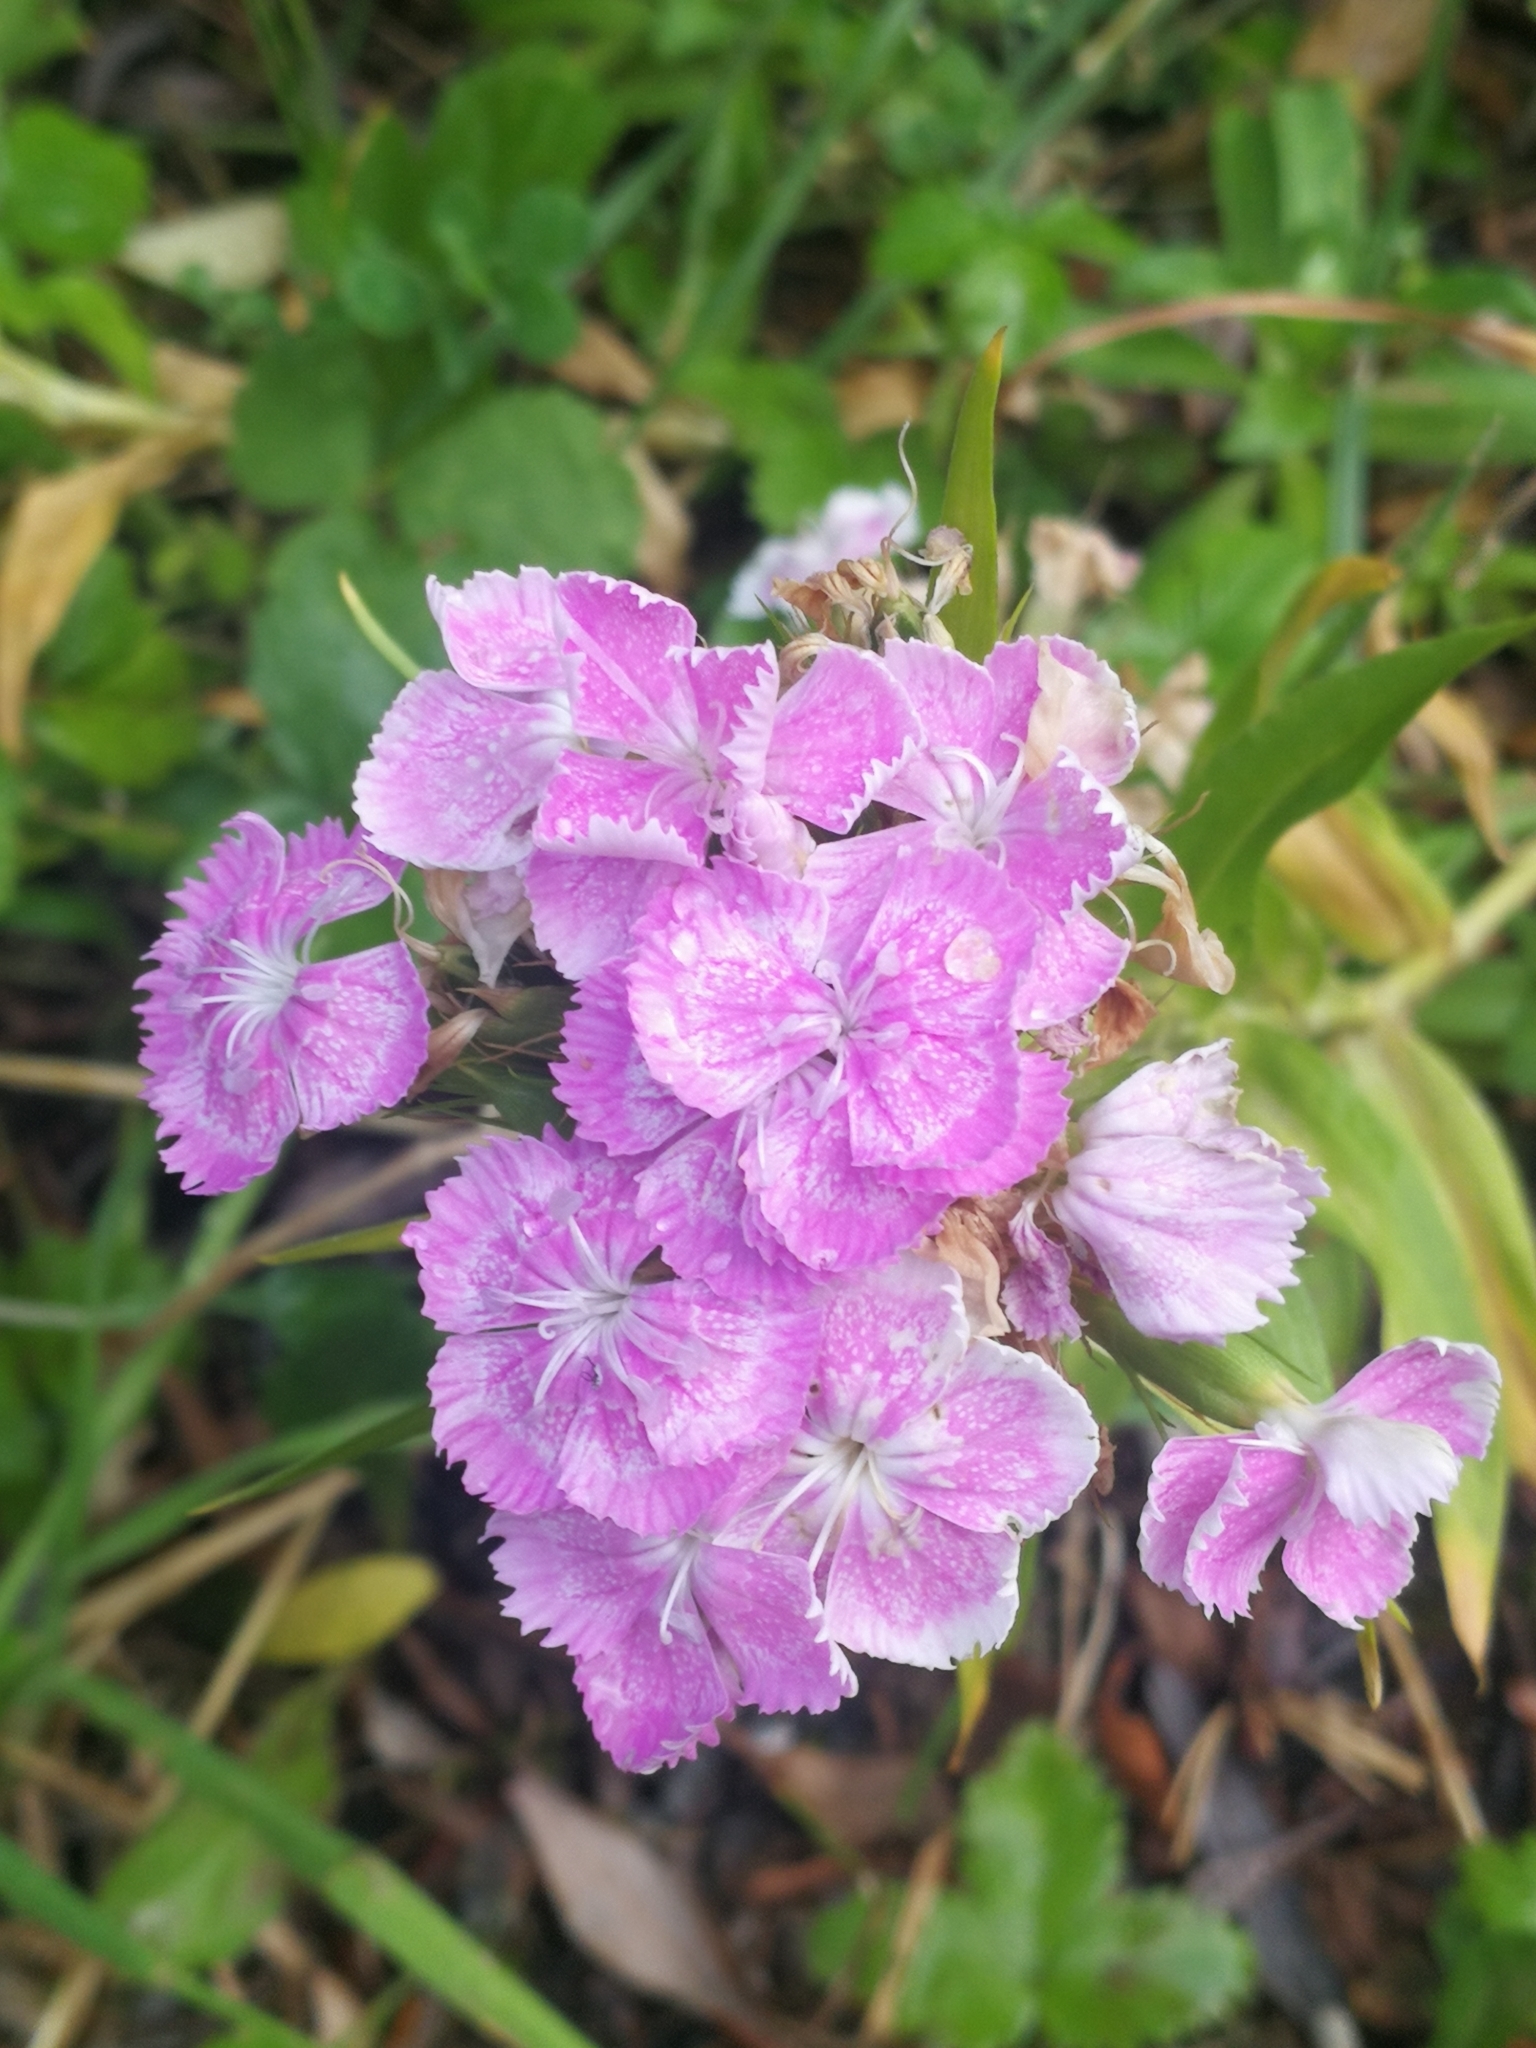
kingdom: Plantae
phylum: Tracheophyta
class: Magnoliopsida
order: Caryophyllales
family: Caryophyllaceae
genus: Dianthus
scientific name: Dianthus barbatus
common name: Sweet-william
